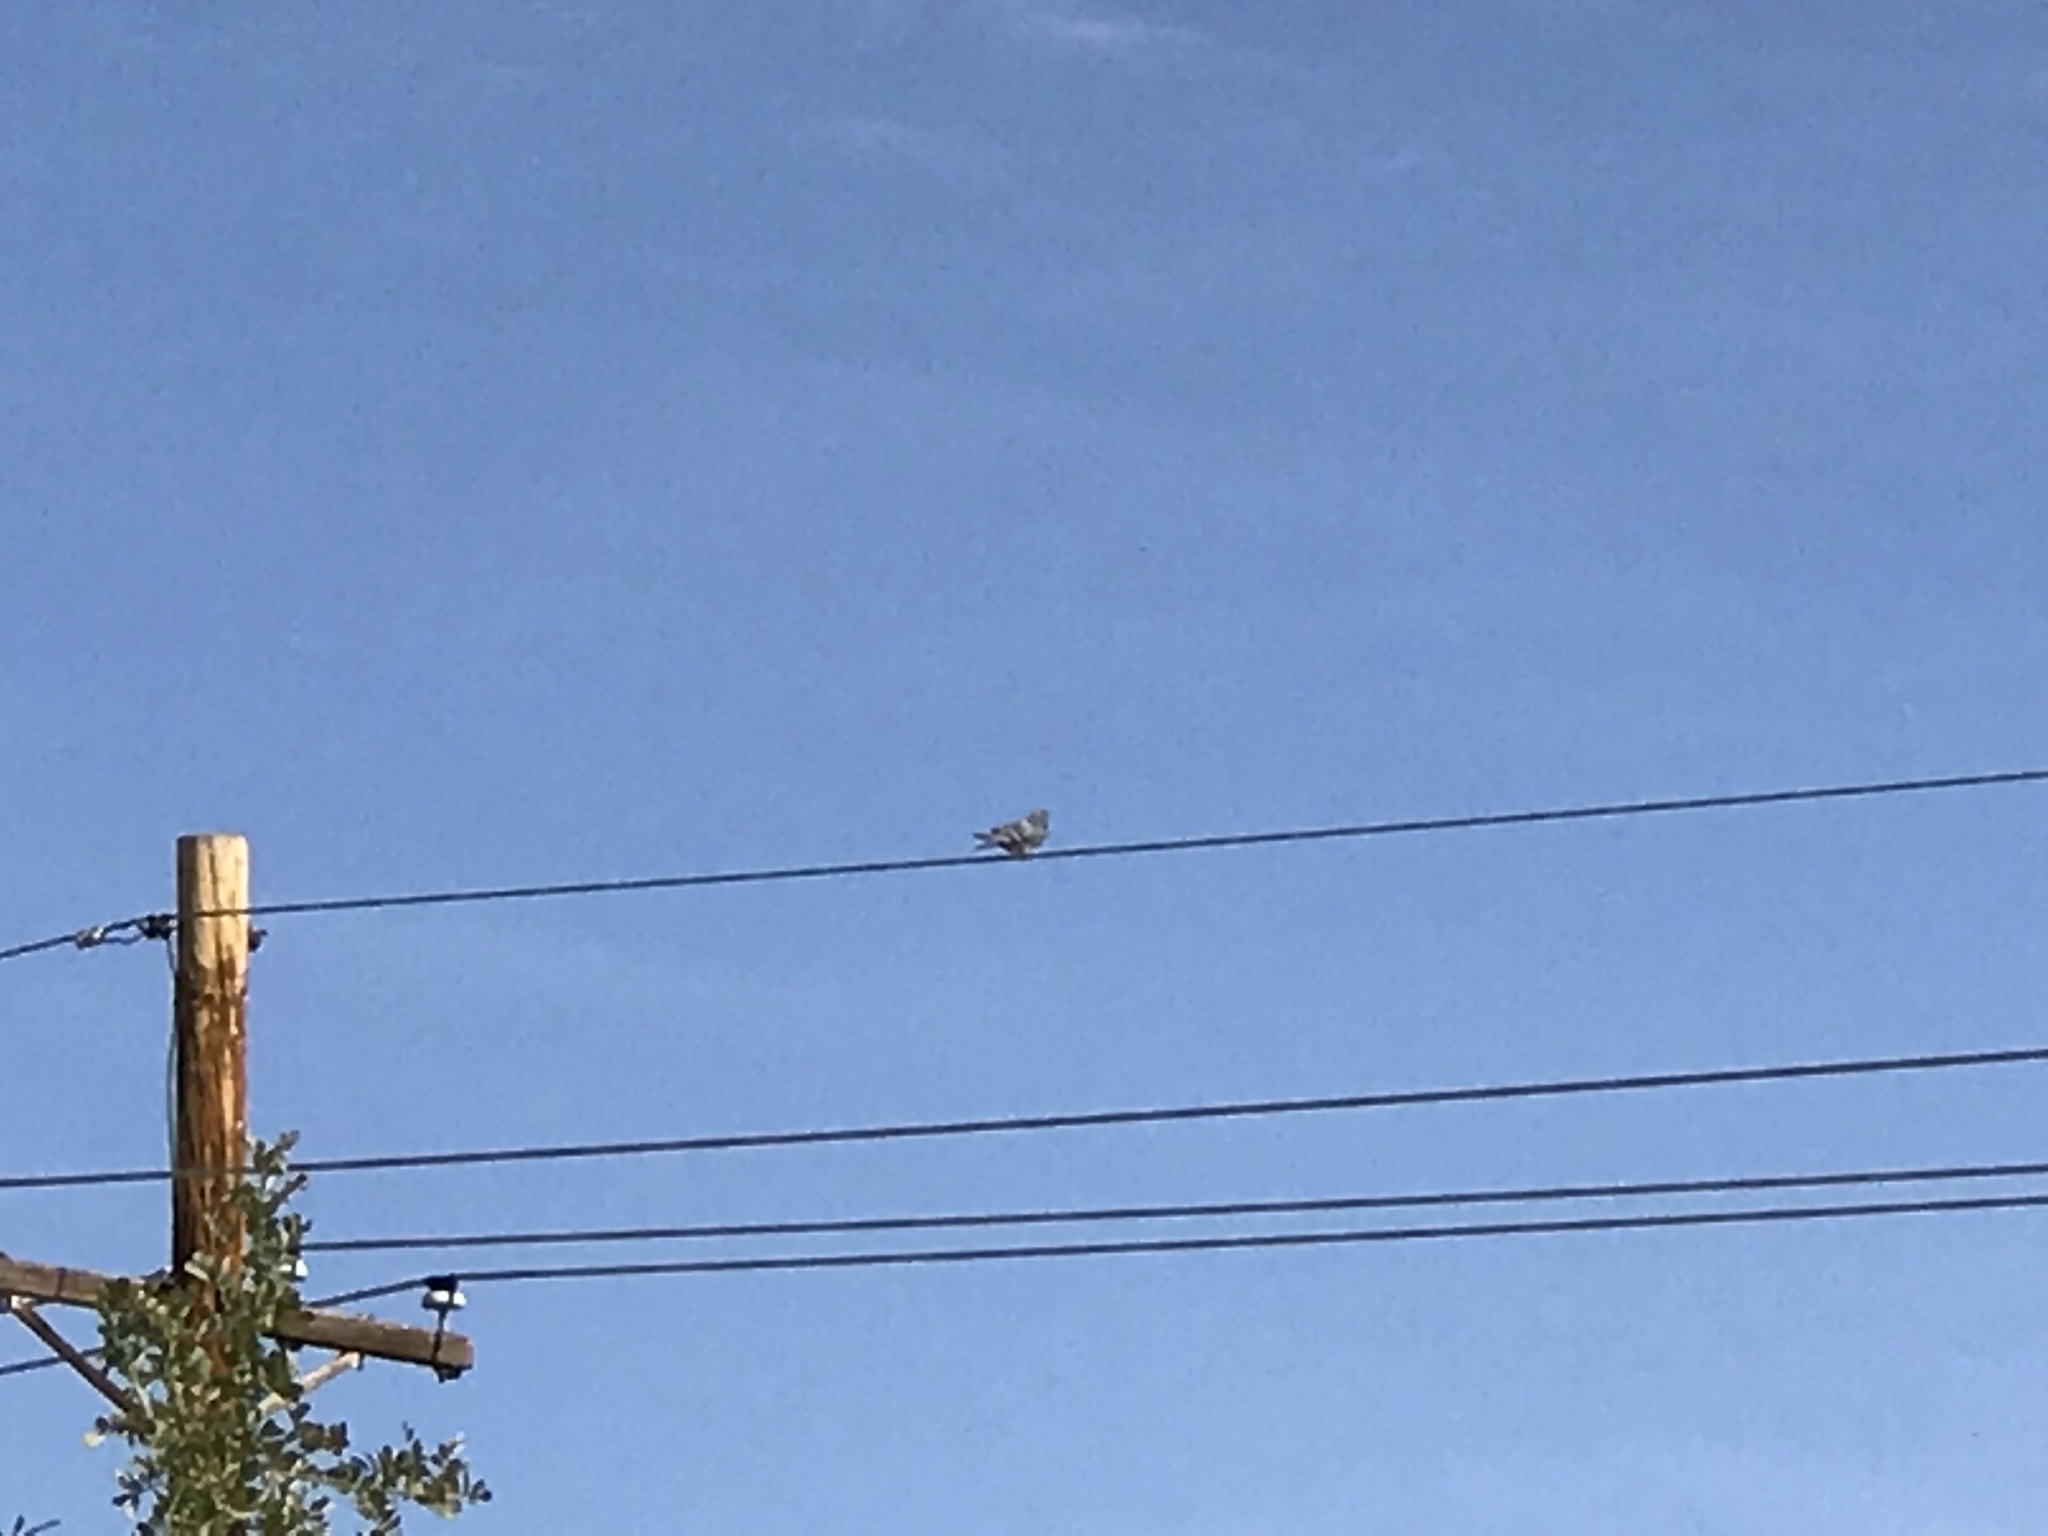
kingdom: Animalia
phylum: Chordata
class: Aves
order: Columbiformes
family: Columbidae
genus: Columba
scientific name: Columba livia
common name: Rock pigeon
